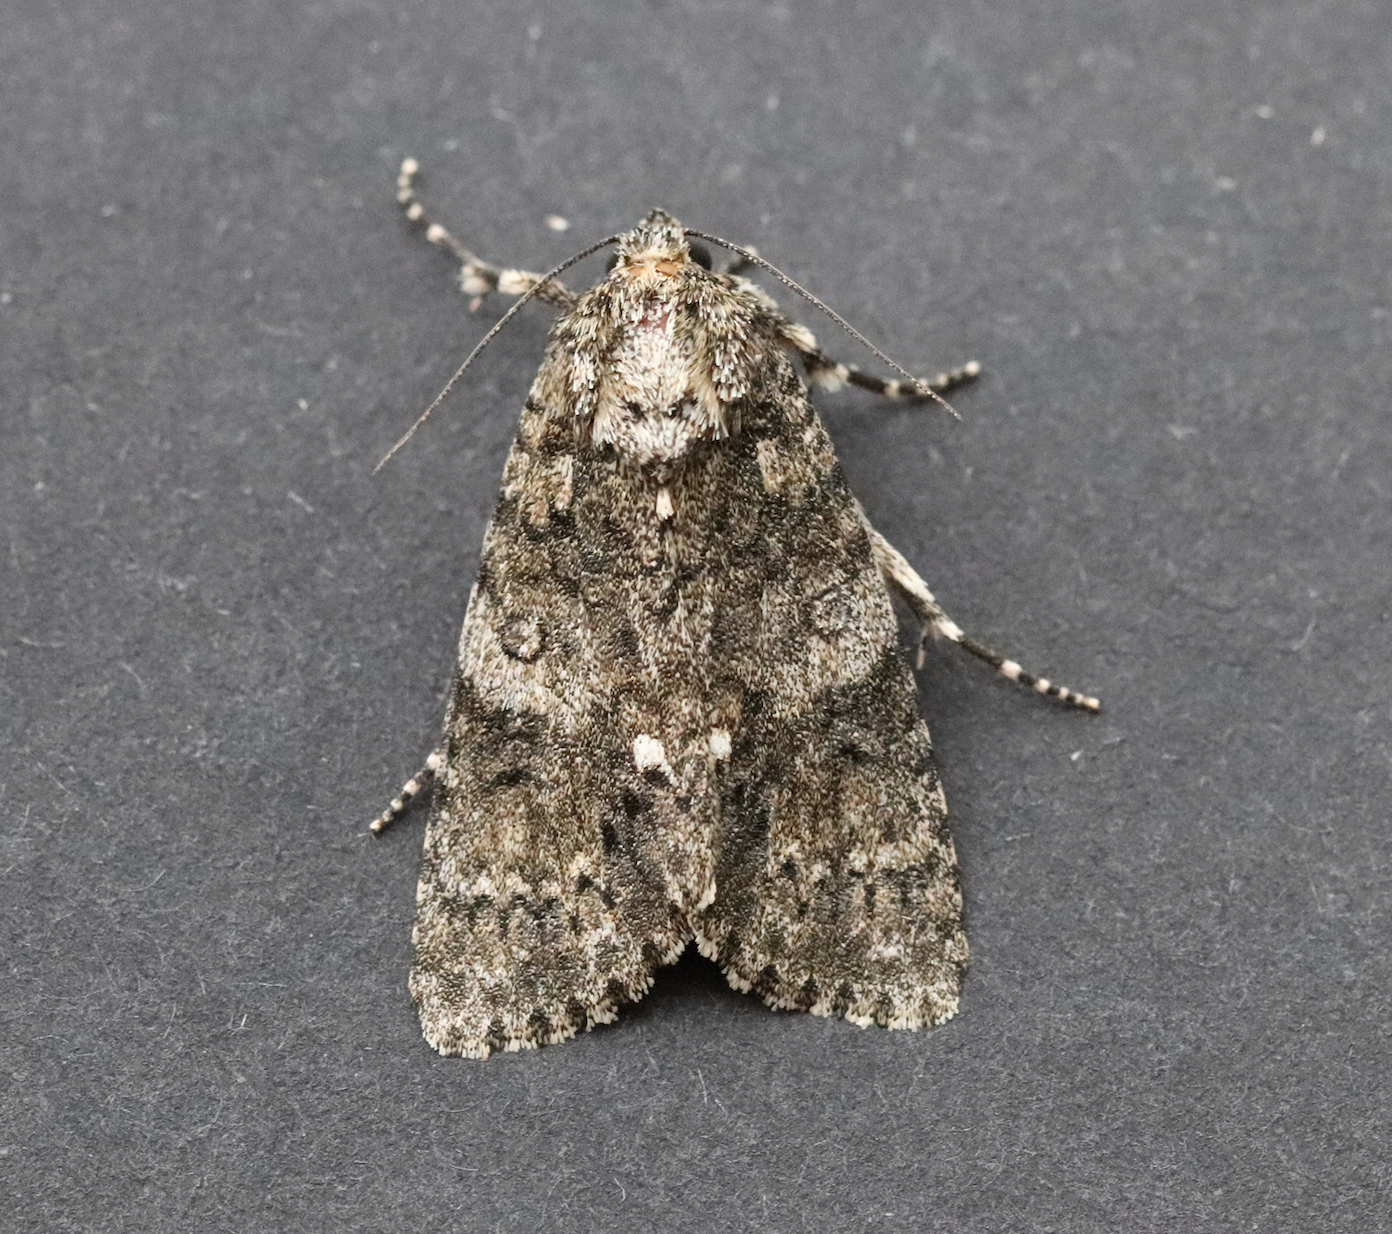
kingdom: Animalia
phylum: Arthropoda
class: Insecta
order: Lepidoptera
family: Noctuidae
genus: Acronicta
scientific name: Acronicta rumicis
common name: Knot grass
